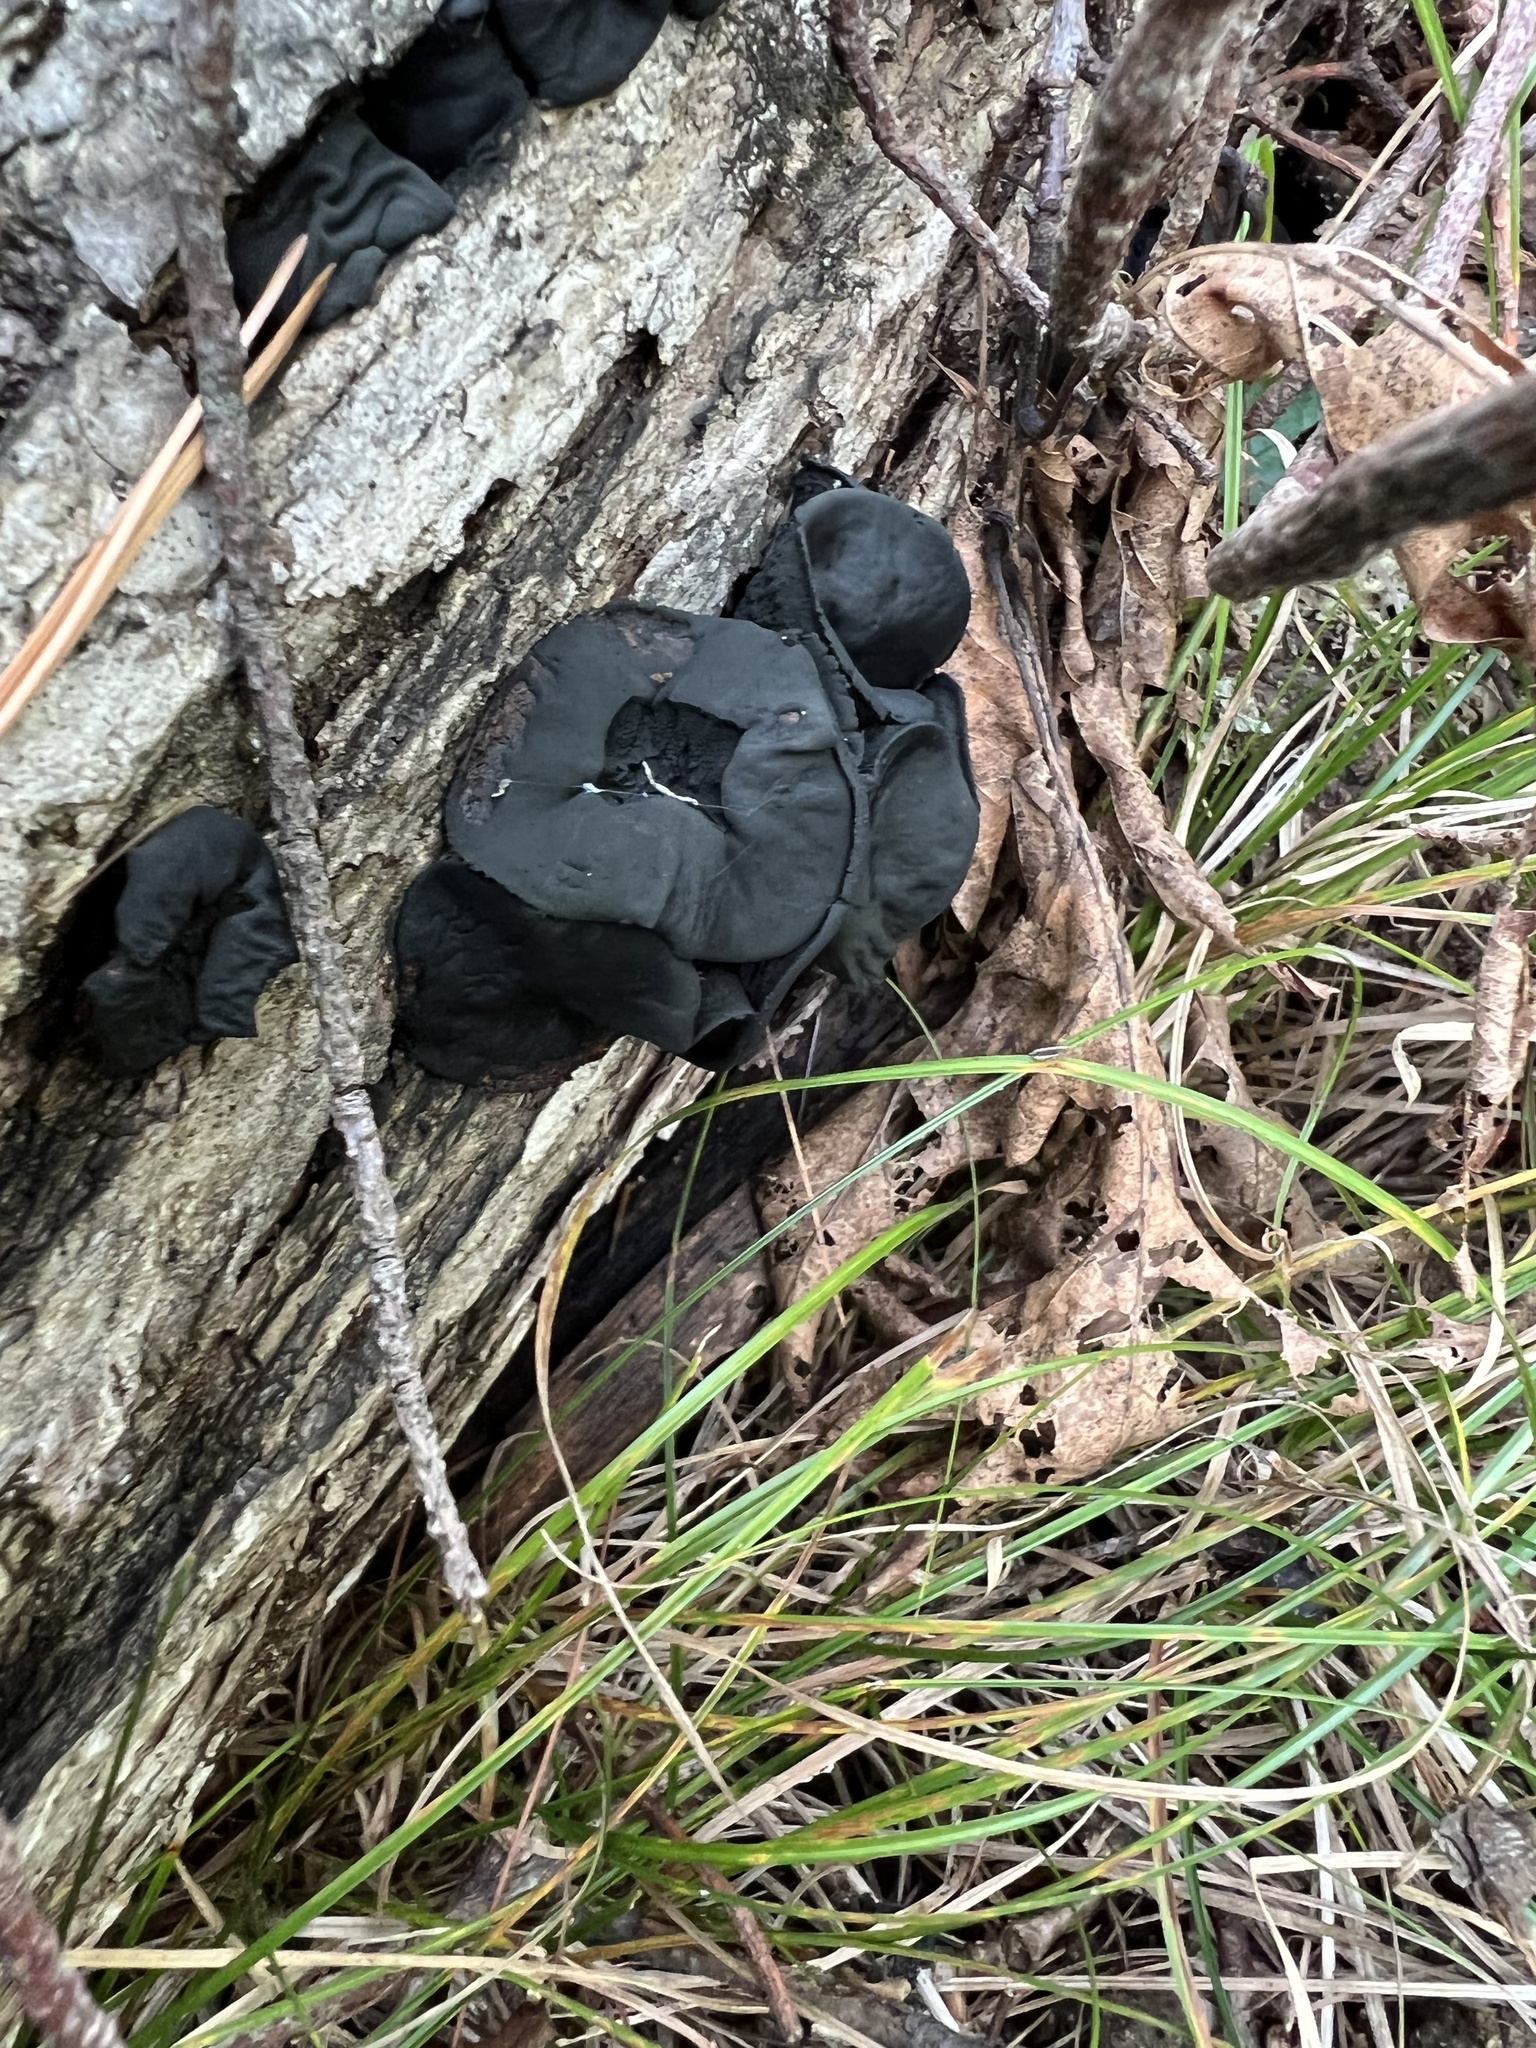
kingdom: Fungi
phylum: Ascomycota
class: Leotiomycetes
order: Phacidiales
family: Phacidiaceae
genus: Bulgaria
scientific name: Bulgaria inquinans
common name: Black bulgar
